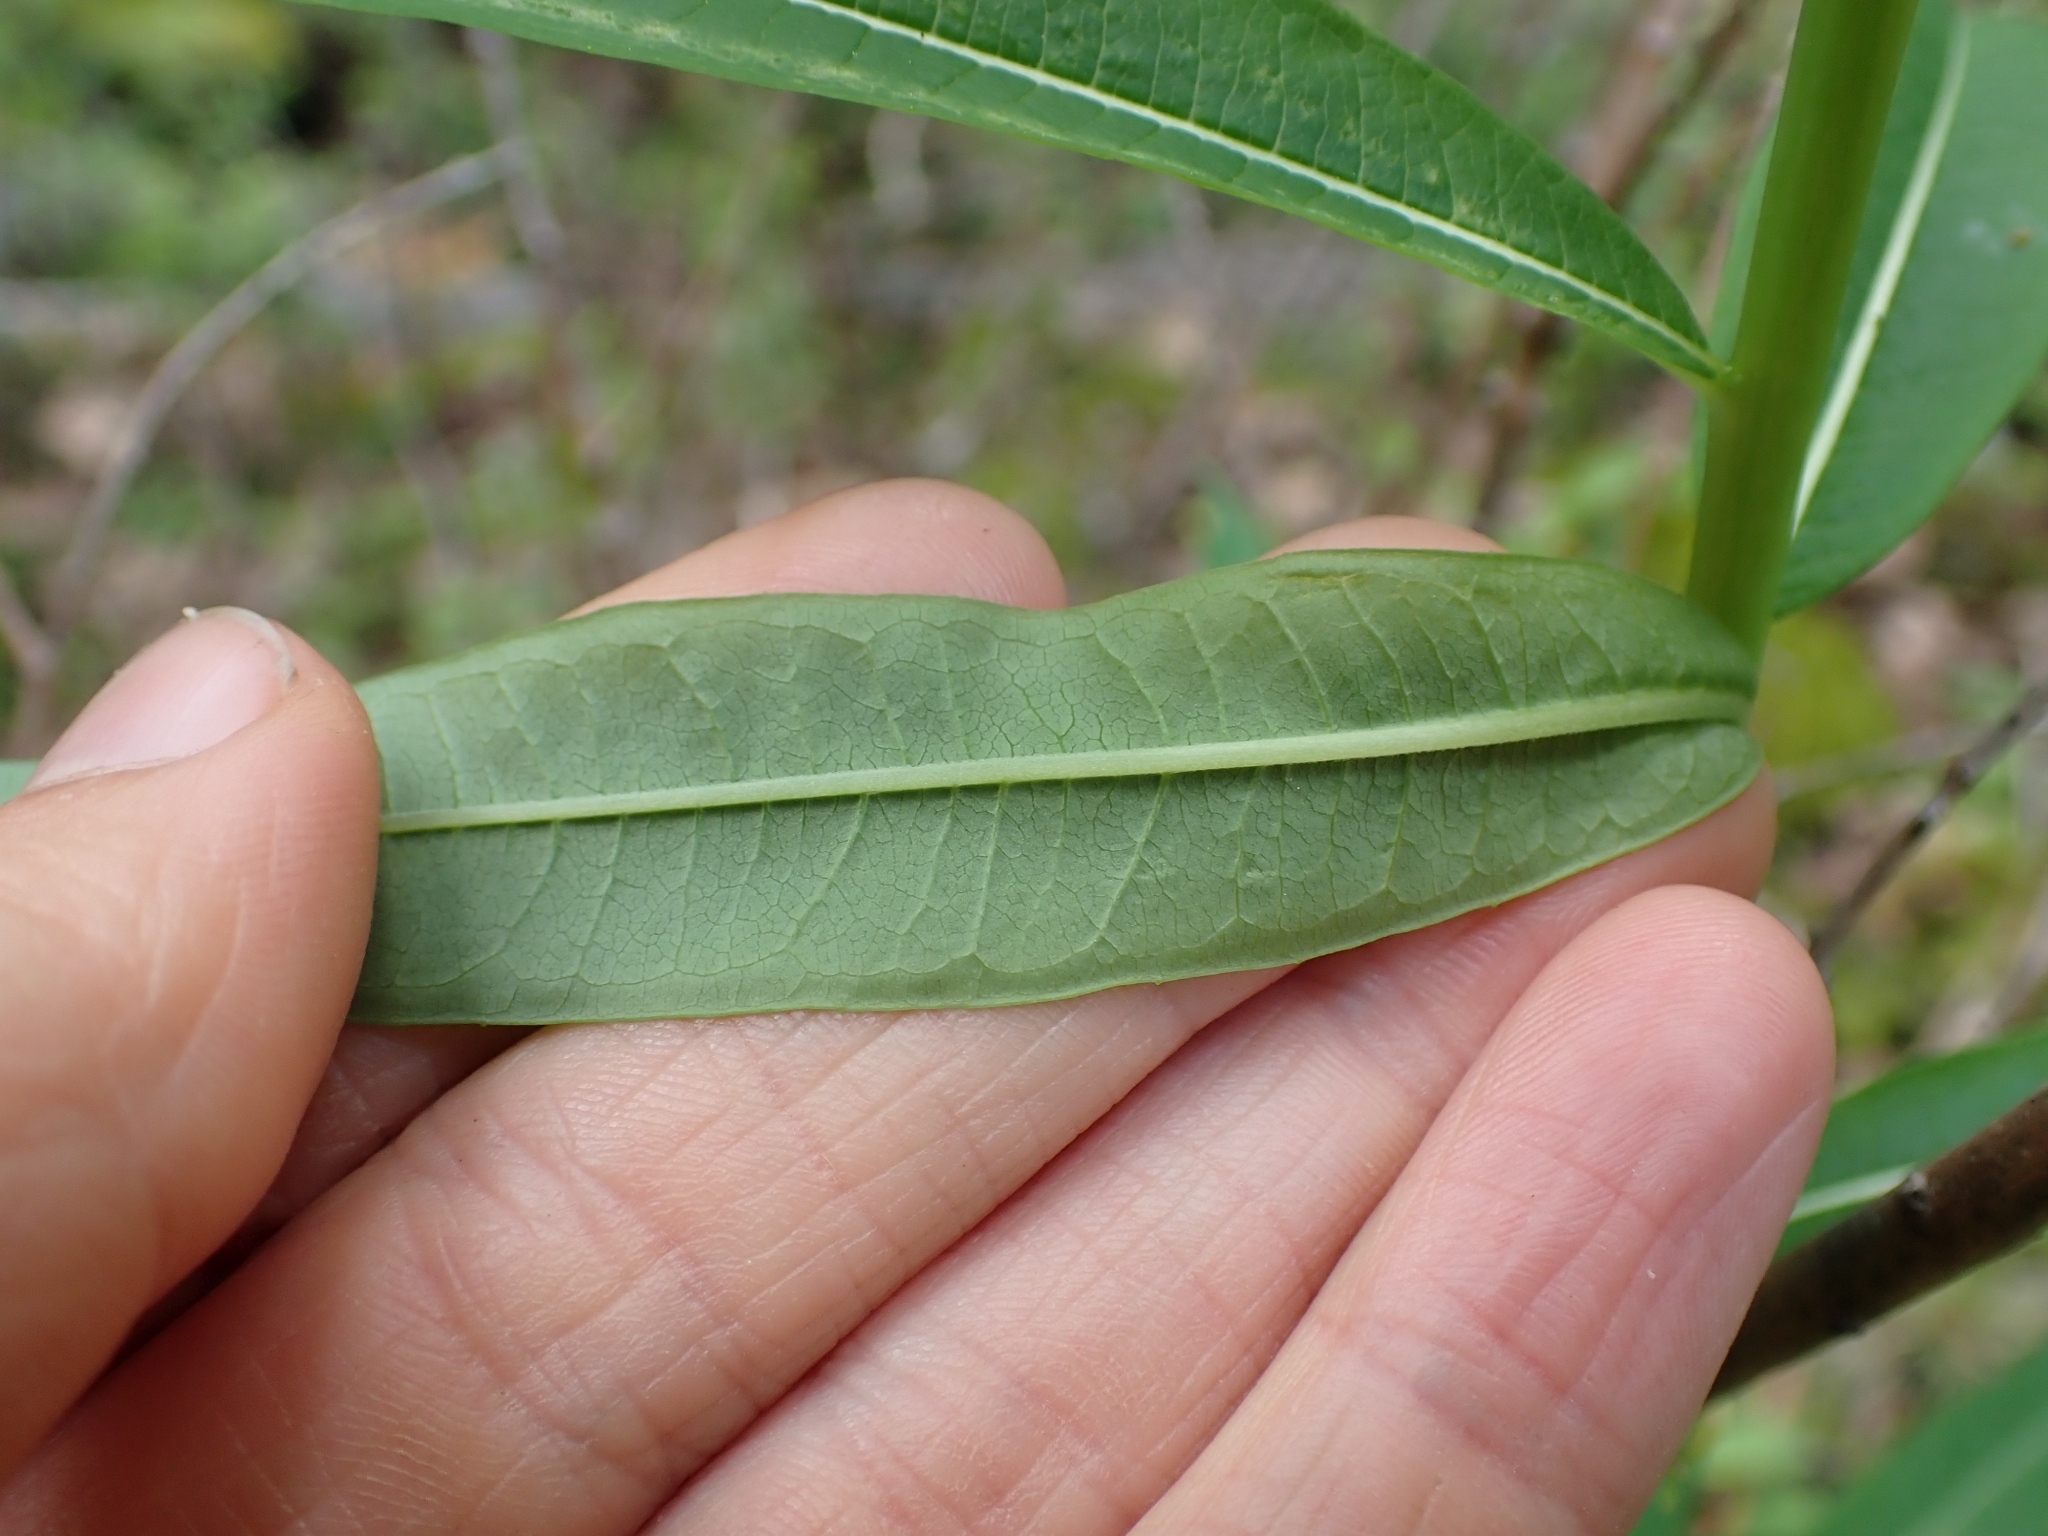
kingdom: Plantae
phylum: Tracheophyta
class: Magnoliopsida
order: Myrtales
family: Onagraceae
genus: Chamaenerion
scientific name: Chamaenerion angustifolium
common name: Fireweed
